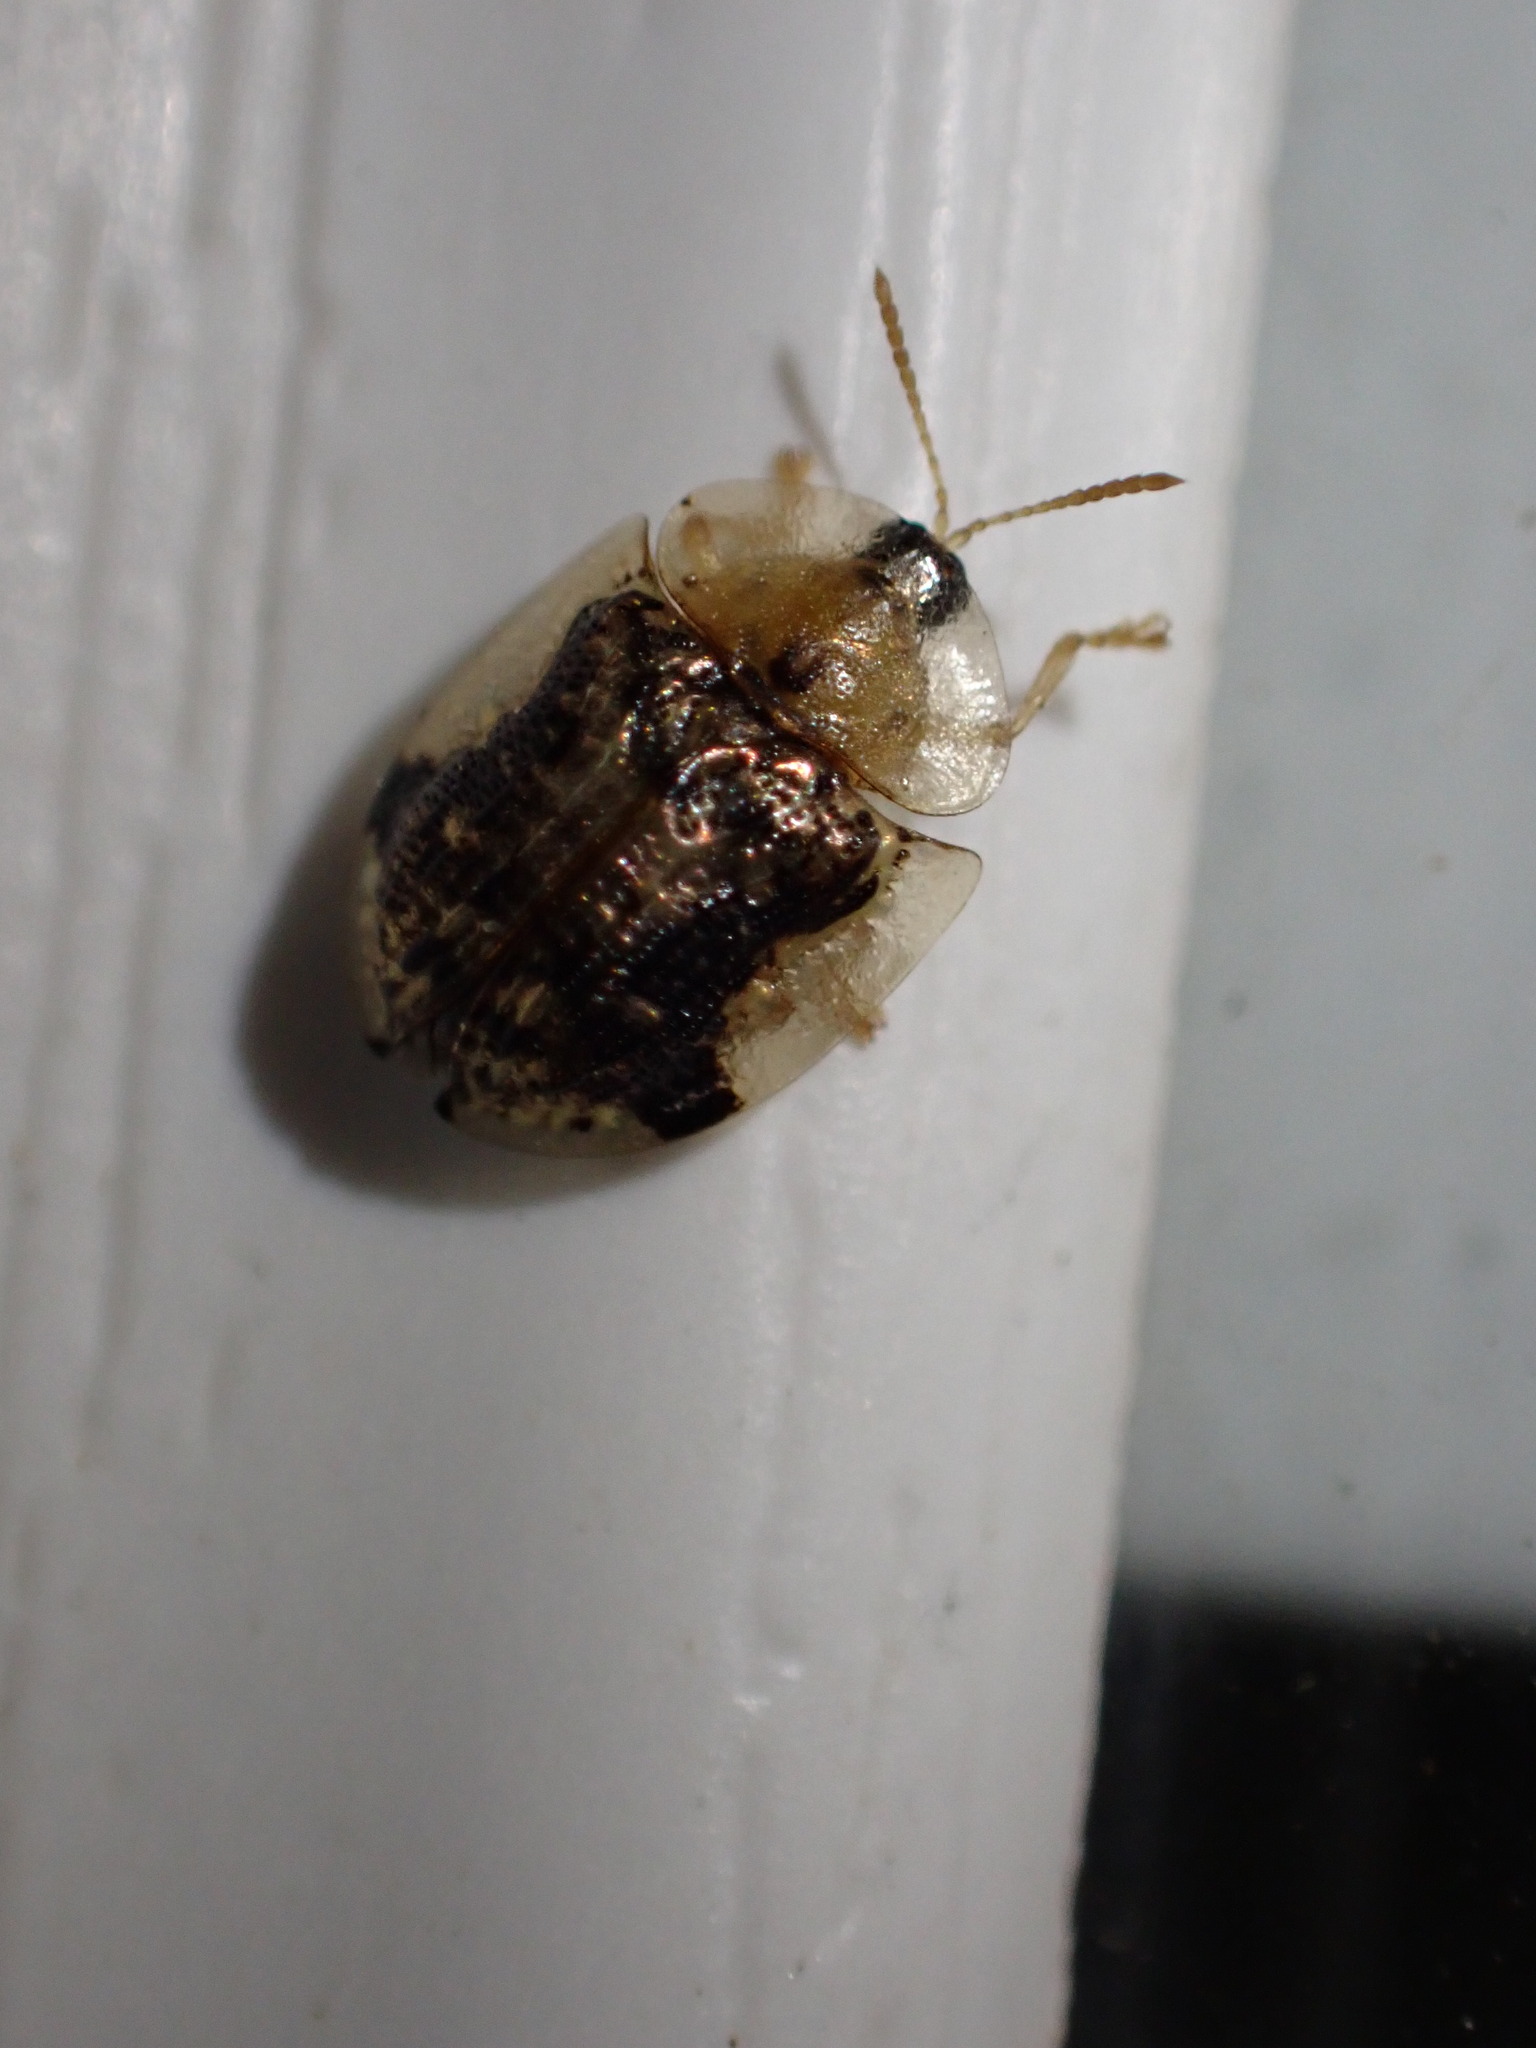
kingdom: Animalia
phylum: Arthropoda
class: Insecta
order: Coleoptera
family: Chrysomelidae
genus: Cassida
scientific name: Cassida piperata
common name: Small tortoise beetle
